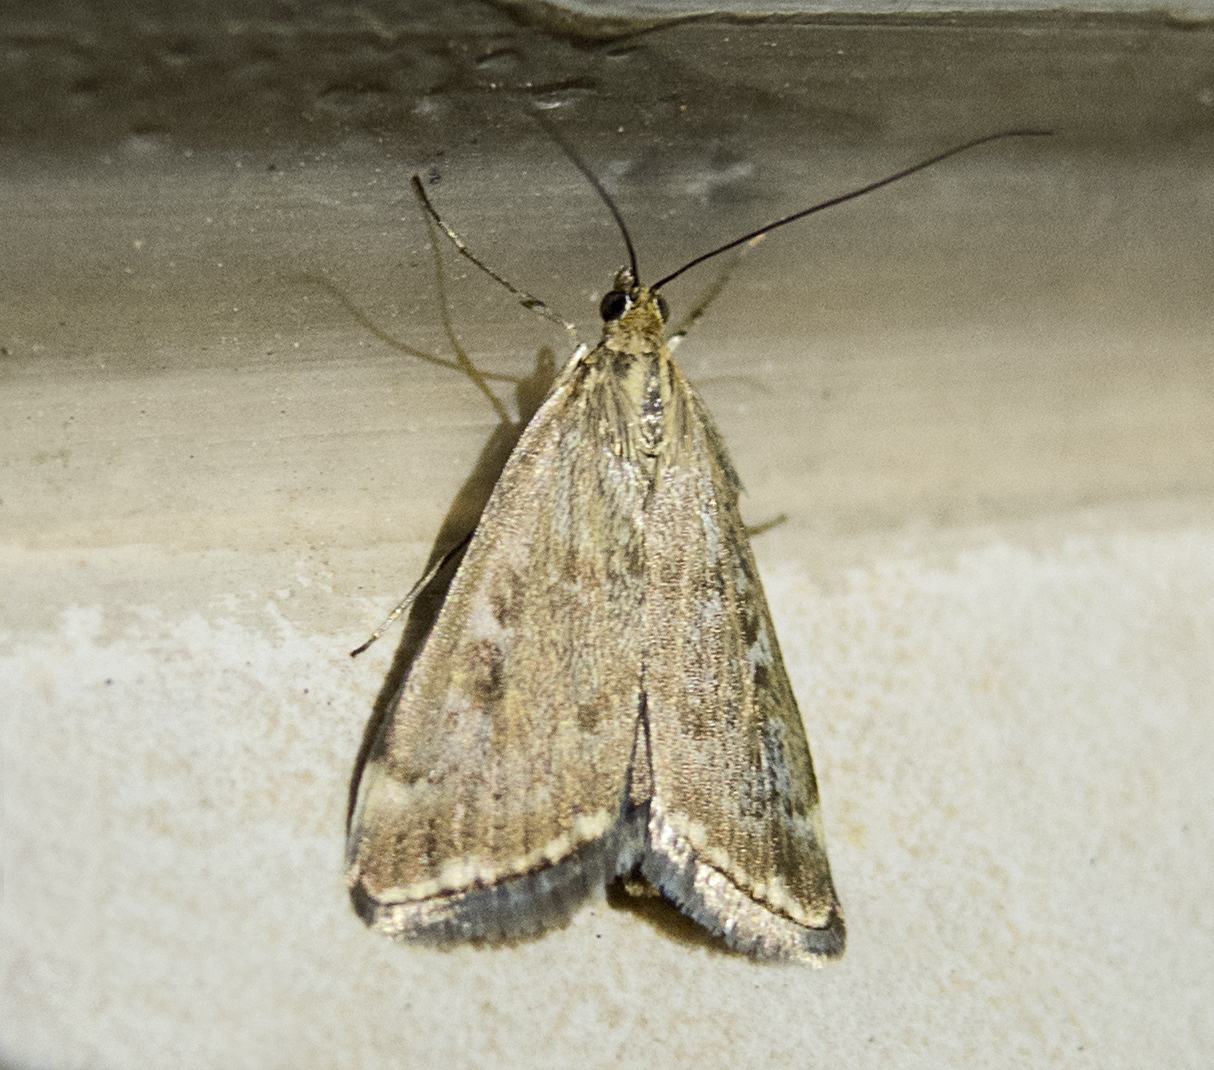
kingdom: Animalia
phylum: Arthropoda
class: Insecta
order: Lepidoptera
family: Crambidae
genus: Loxostege
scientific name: Loxostege sticticalis
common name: Crambid moth
